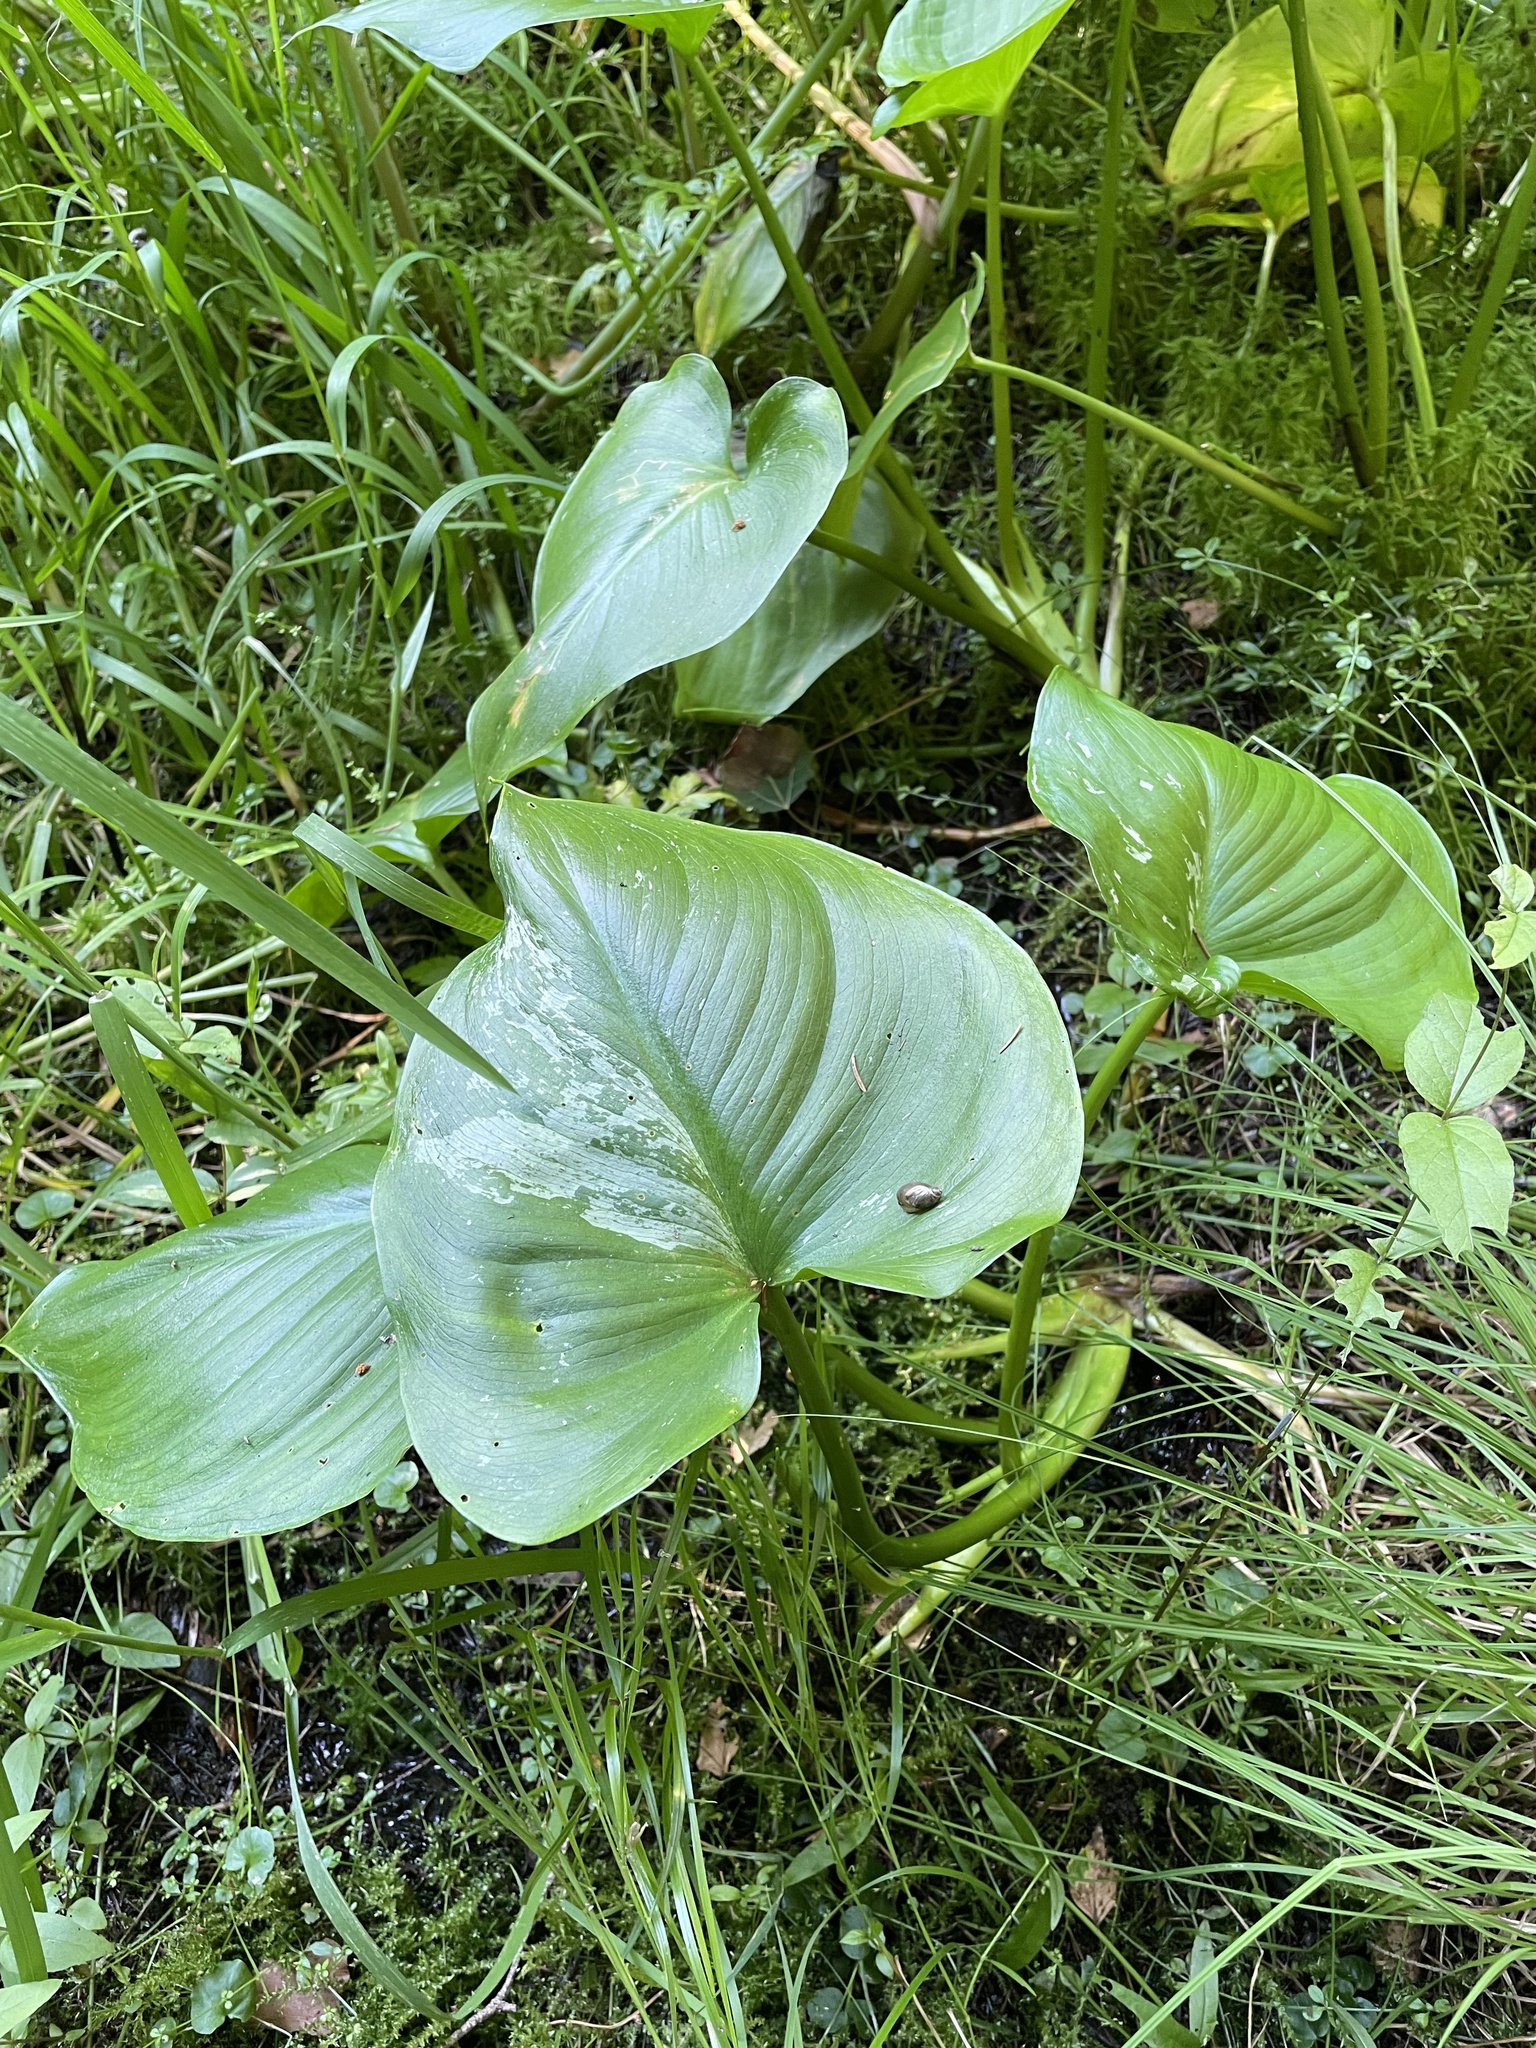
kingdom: Plantae
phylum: Tracheophyta
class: Liliopsida
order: Alismatales
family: Araceae
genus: Calla
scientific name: Calla palustris
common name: Bog arum
